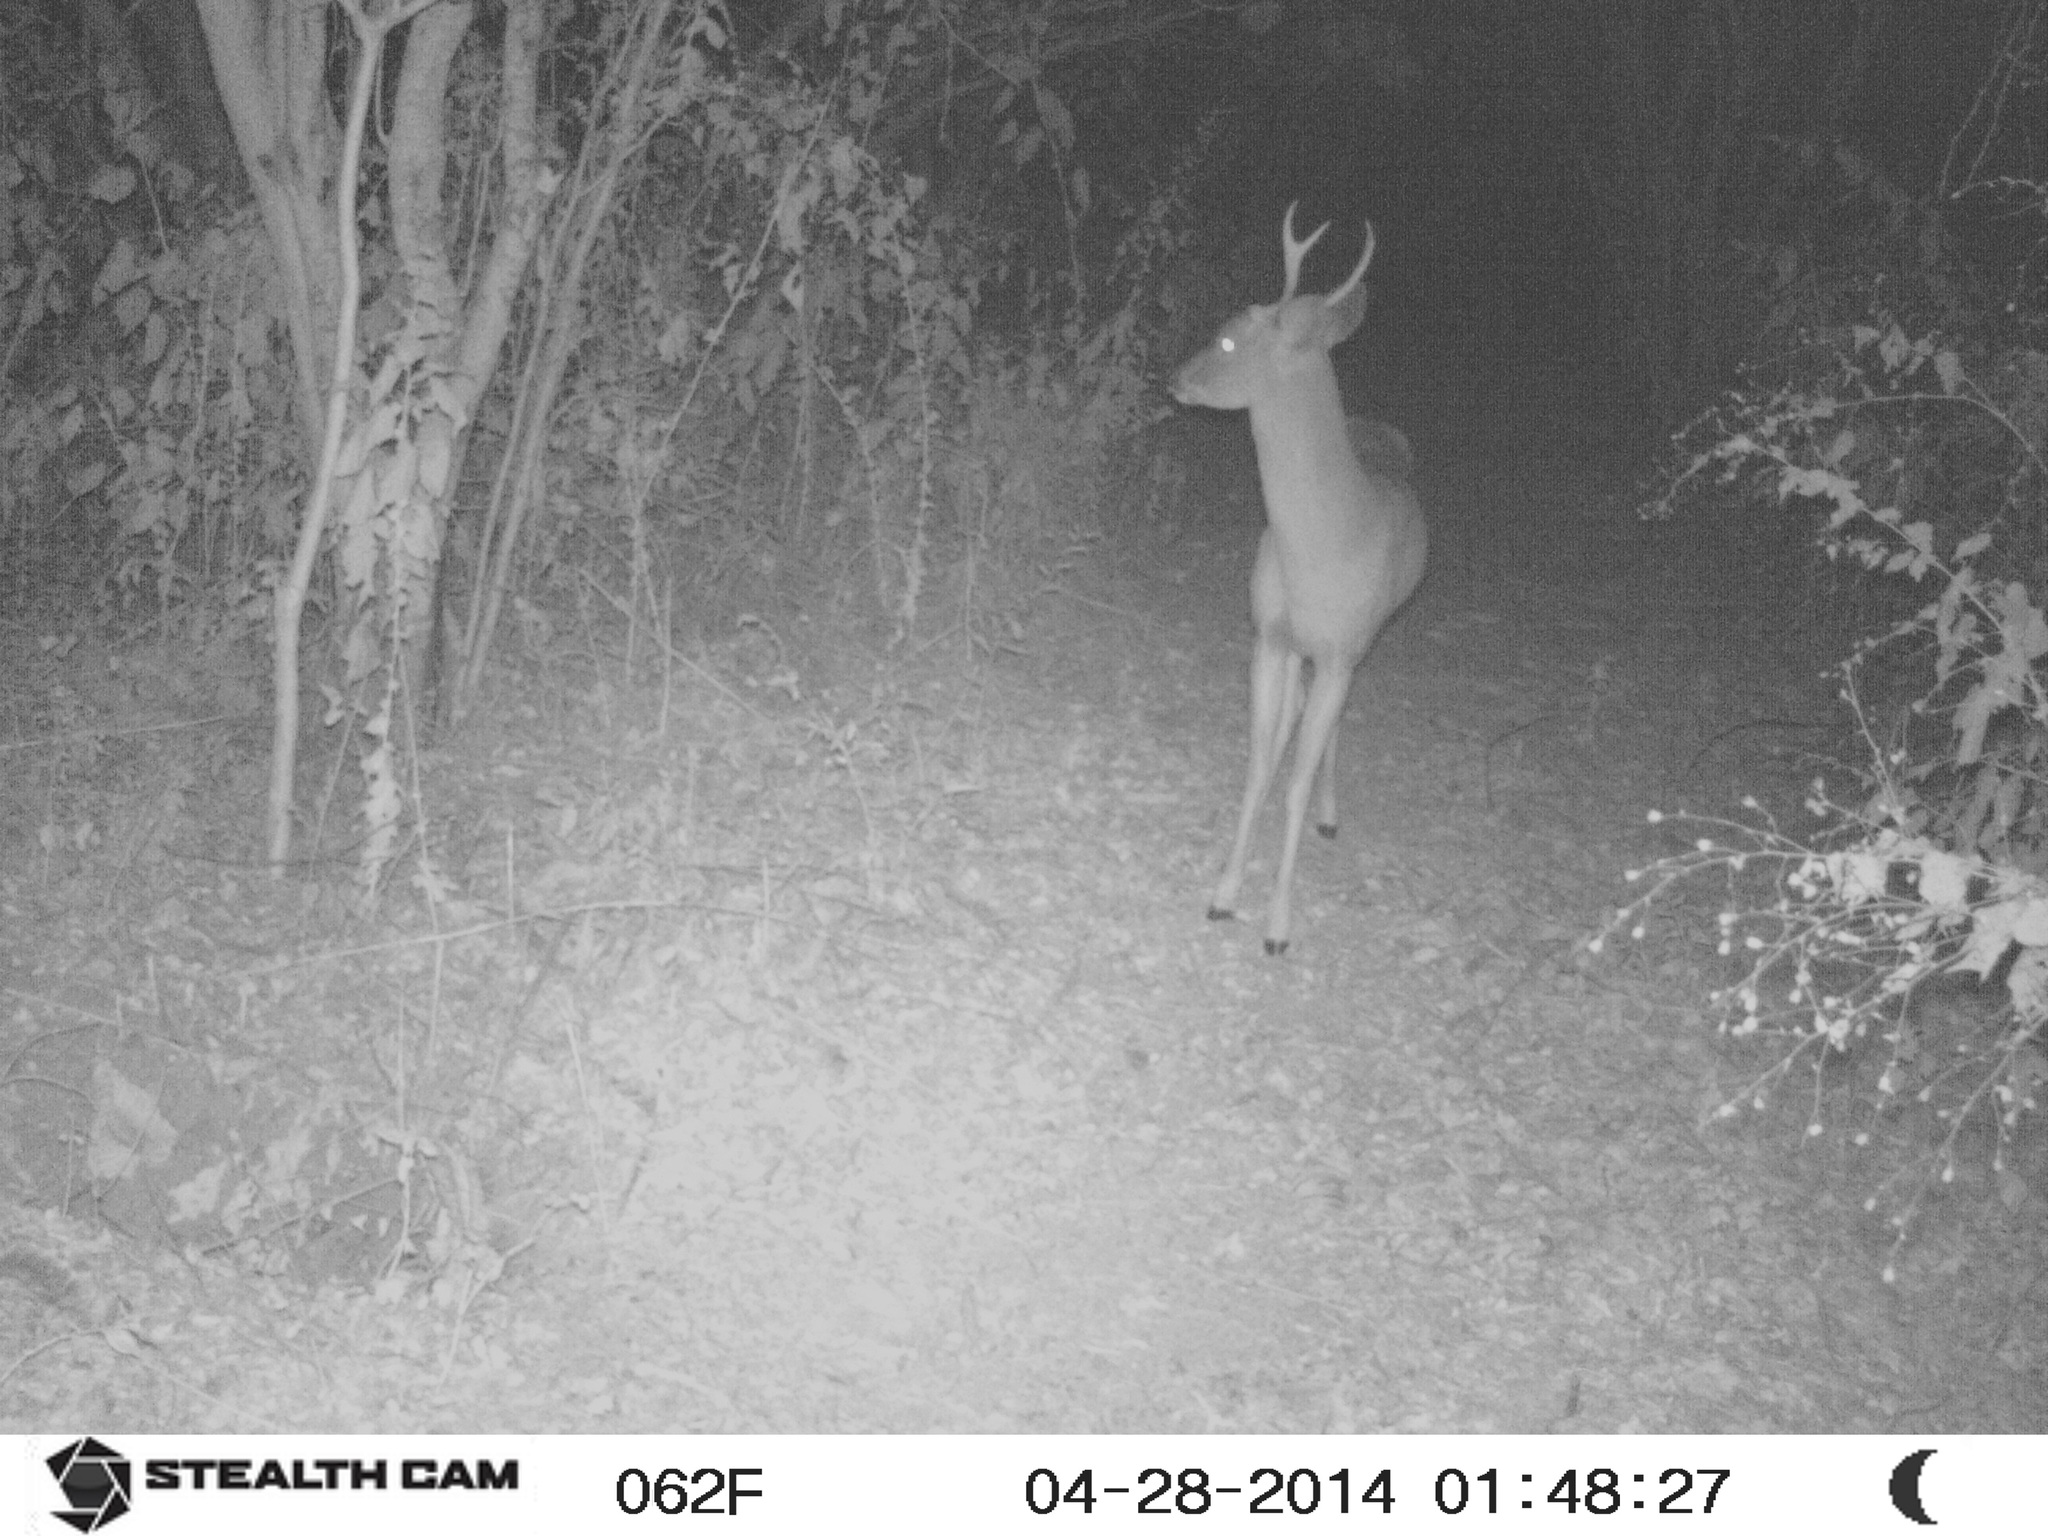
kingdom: Animalia
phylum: Chordata
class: Mammalia
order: Artiodactyla
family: Cervidae
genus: Odocoileus
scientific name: Odocoileus virginianus
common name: White-tailed deer
